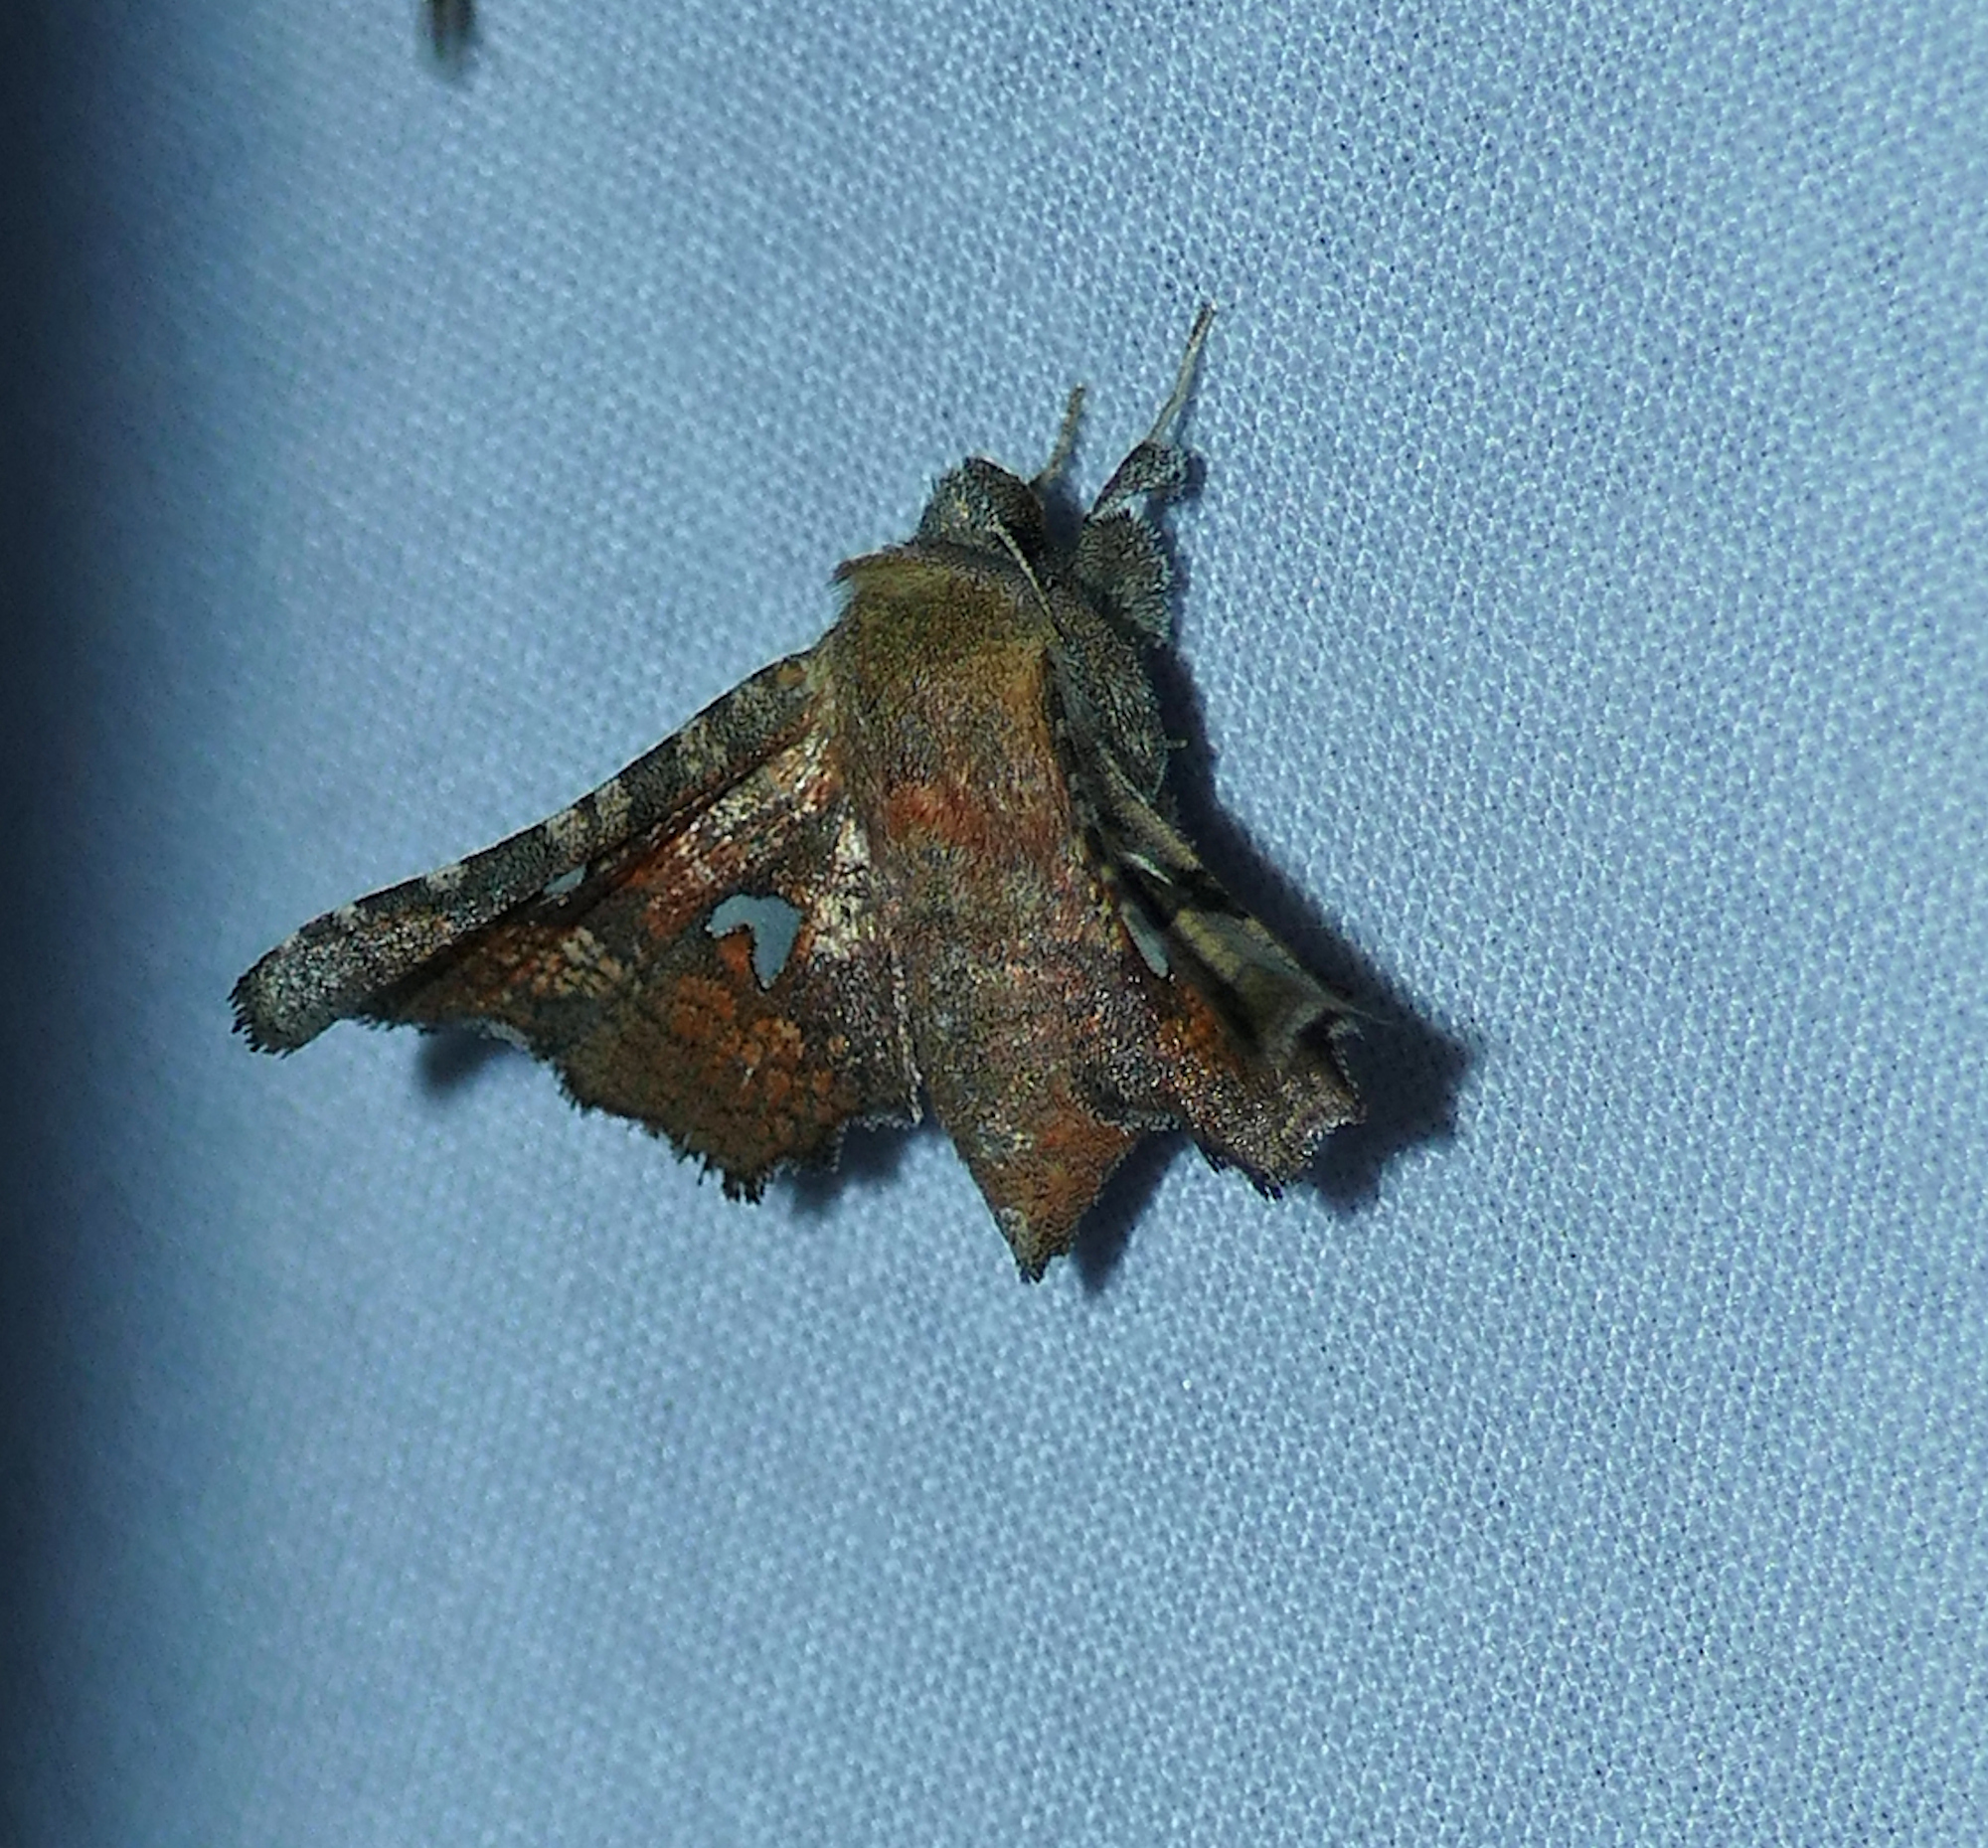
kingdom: Animalia
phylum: Arthropoda
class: Insecta
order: Lepidoptera
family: Thyrididae
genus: Dysodia
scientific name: Dysodia granulata
